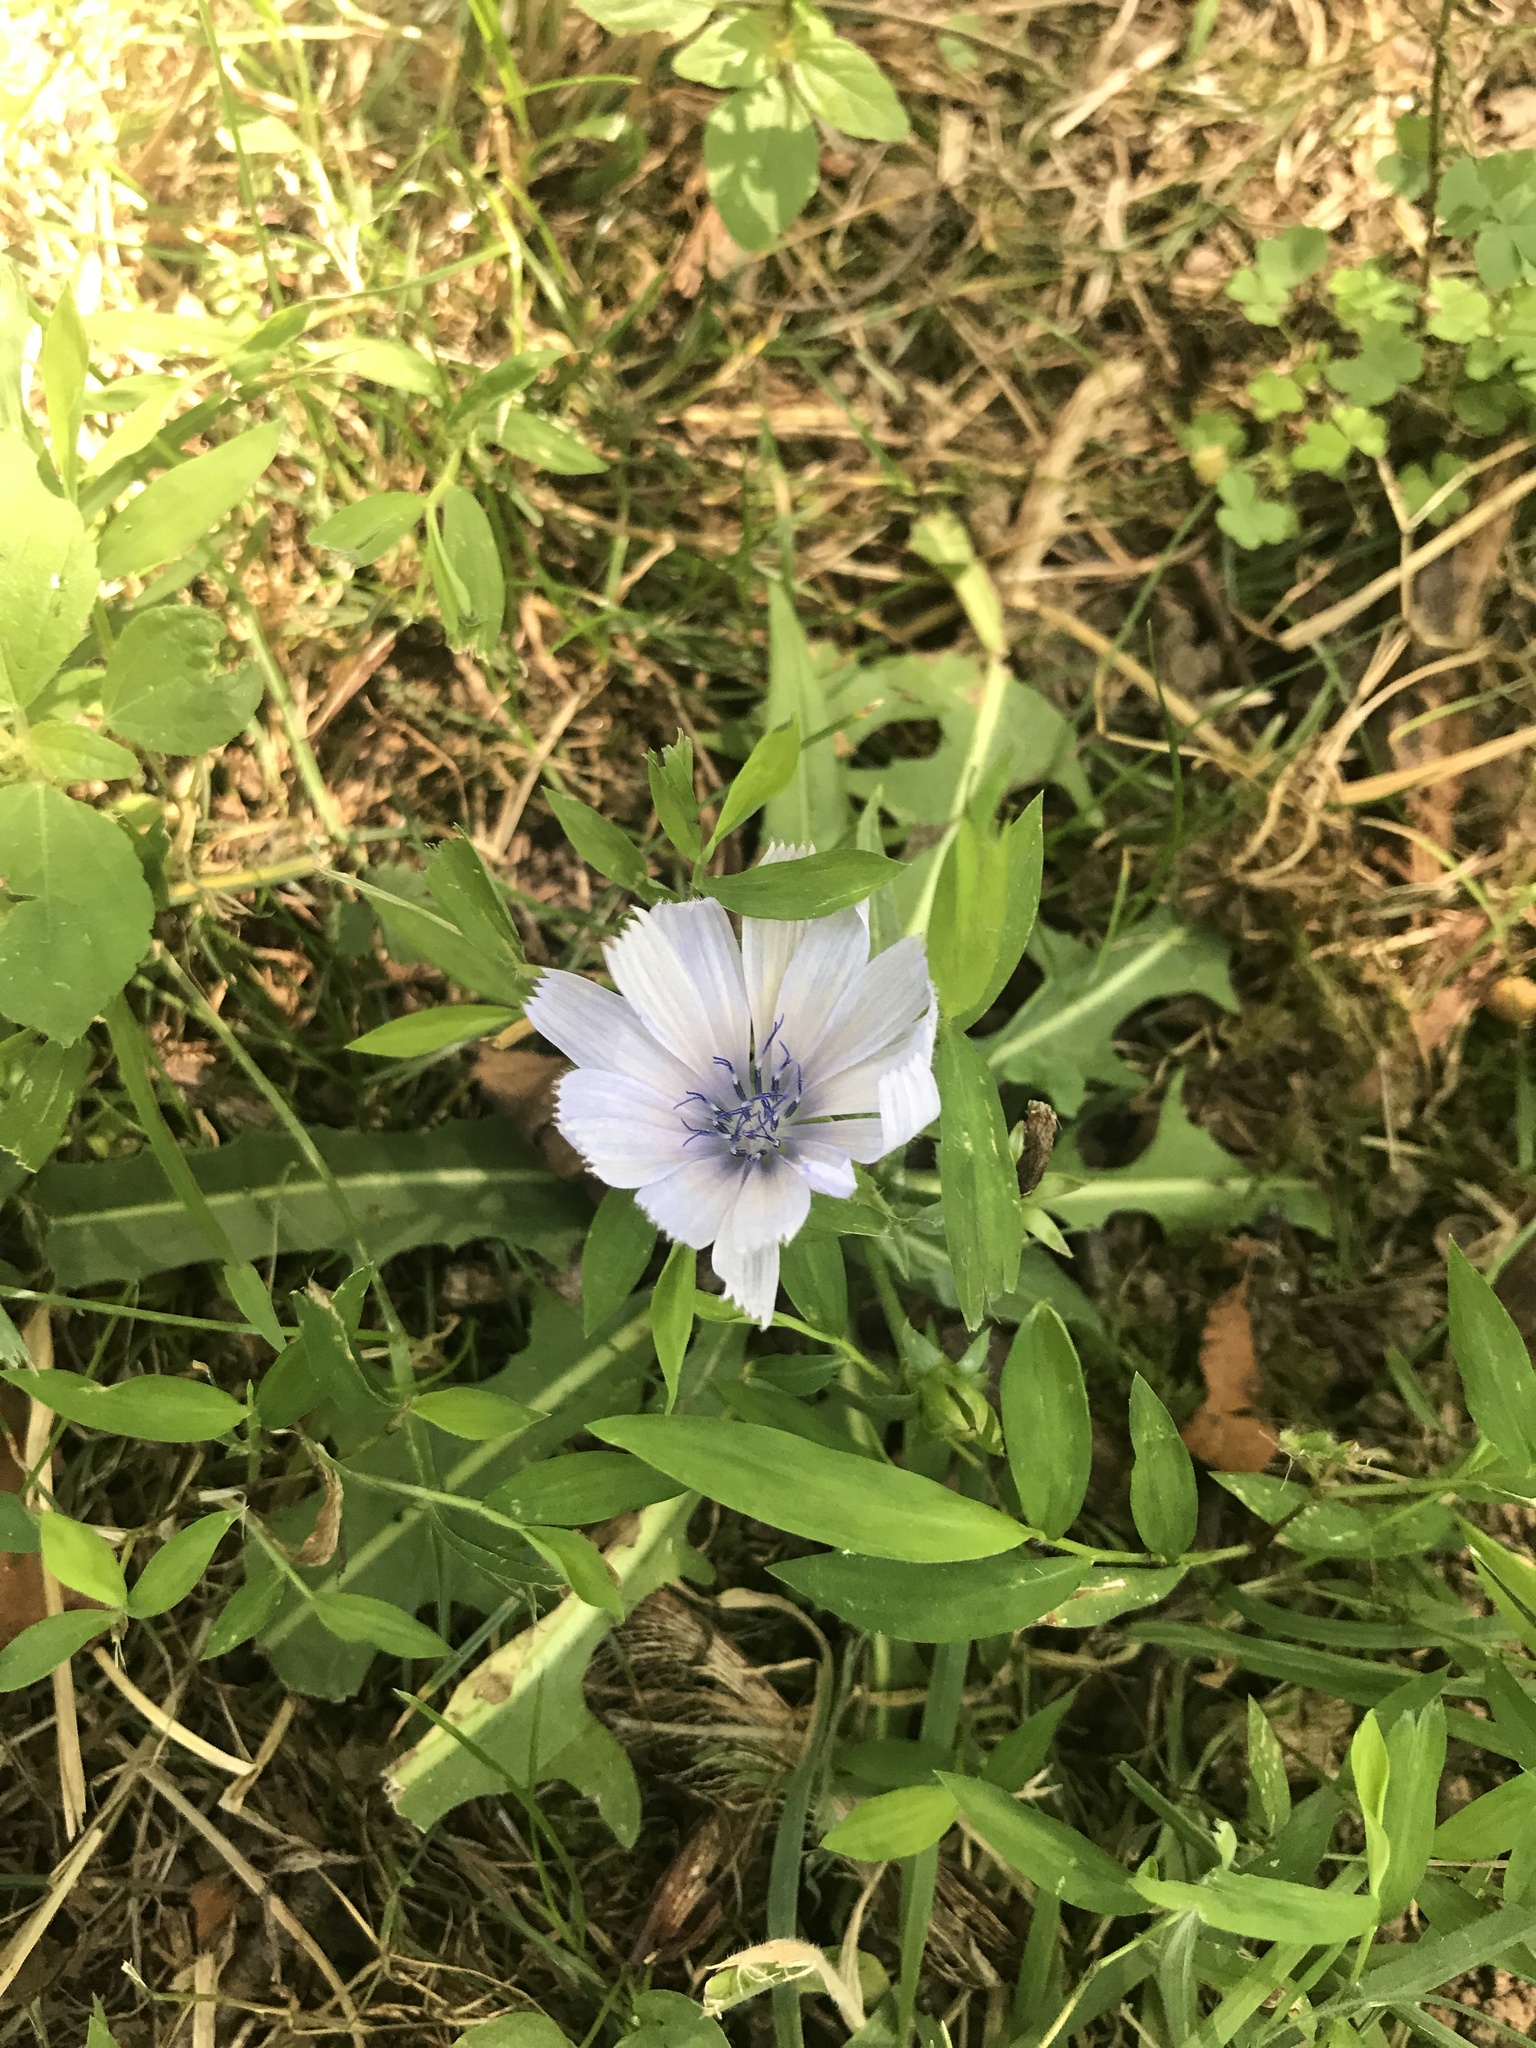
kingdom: Plantae
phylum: Tracheophyta
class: Magnoliopsida
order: Asterales
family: Asteraceae
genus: Cichorium
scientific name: Cichorium intybus
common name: Chicory
